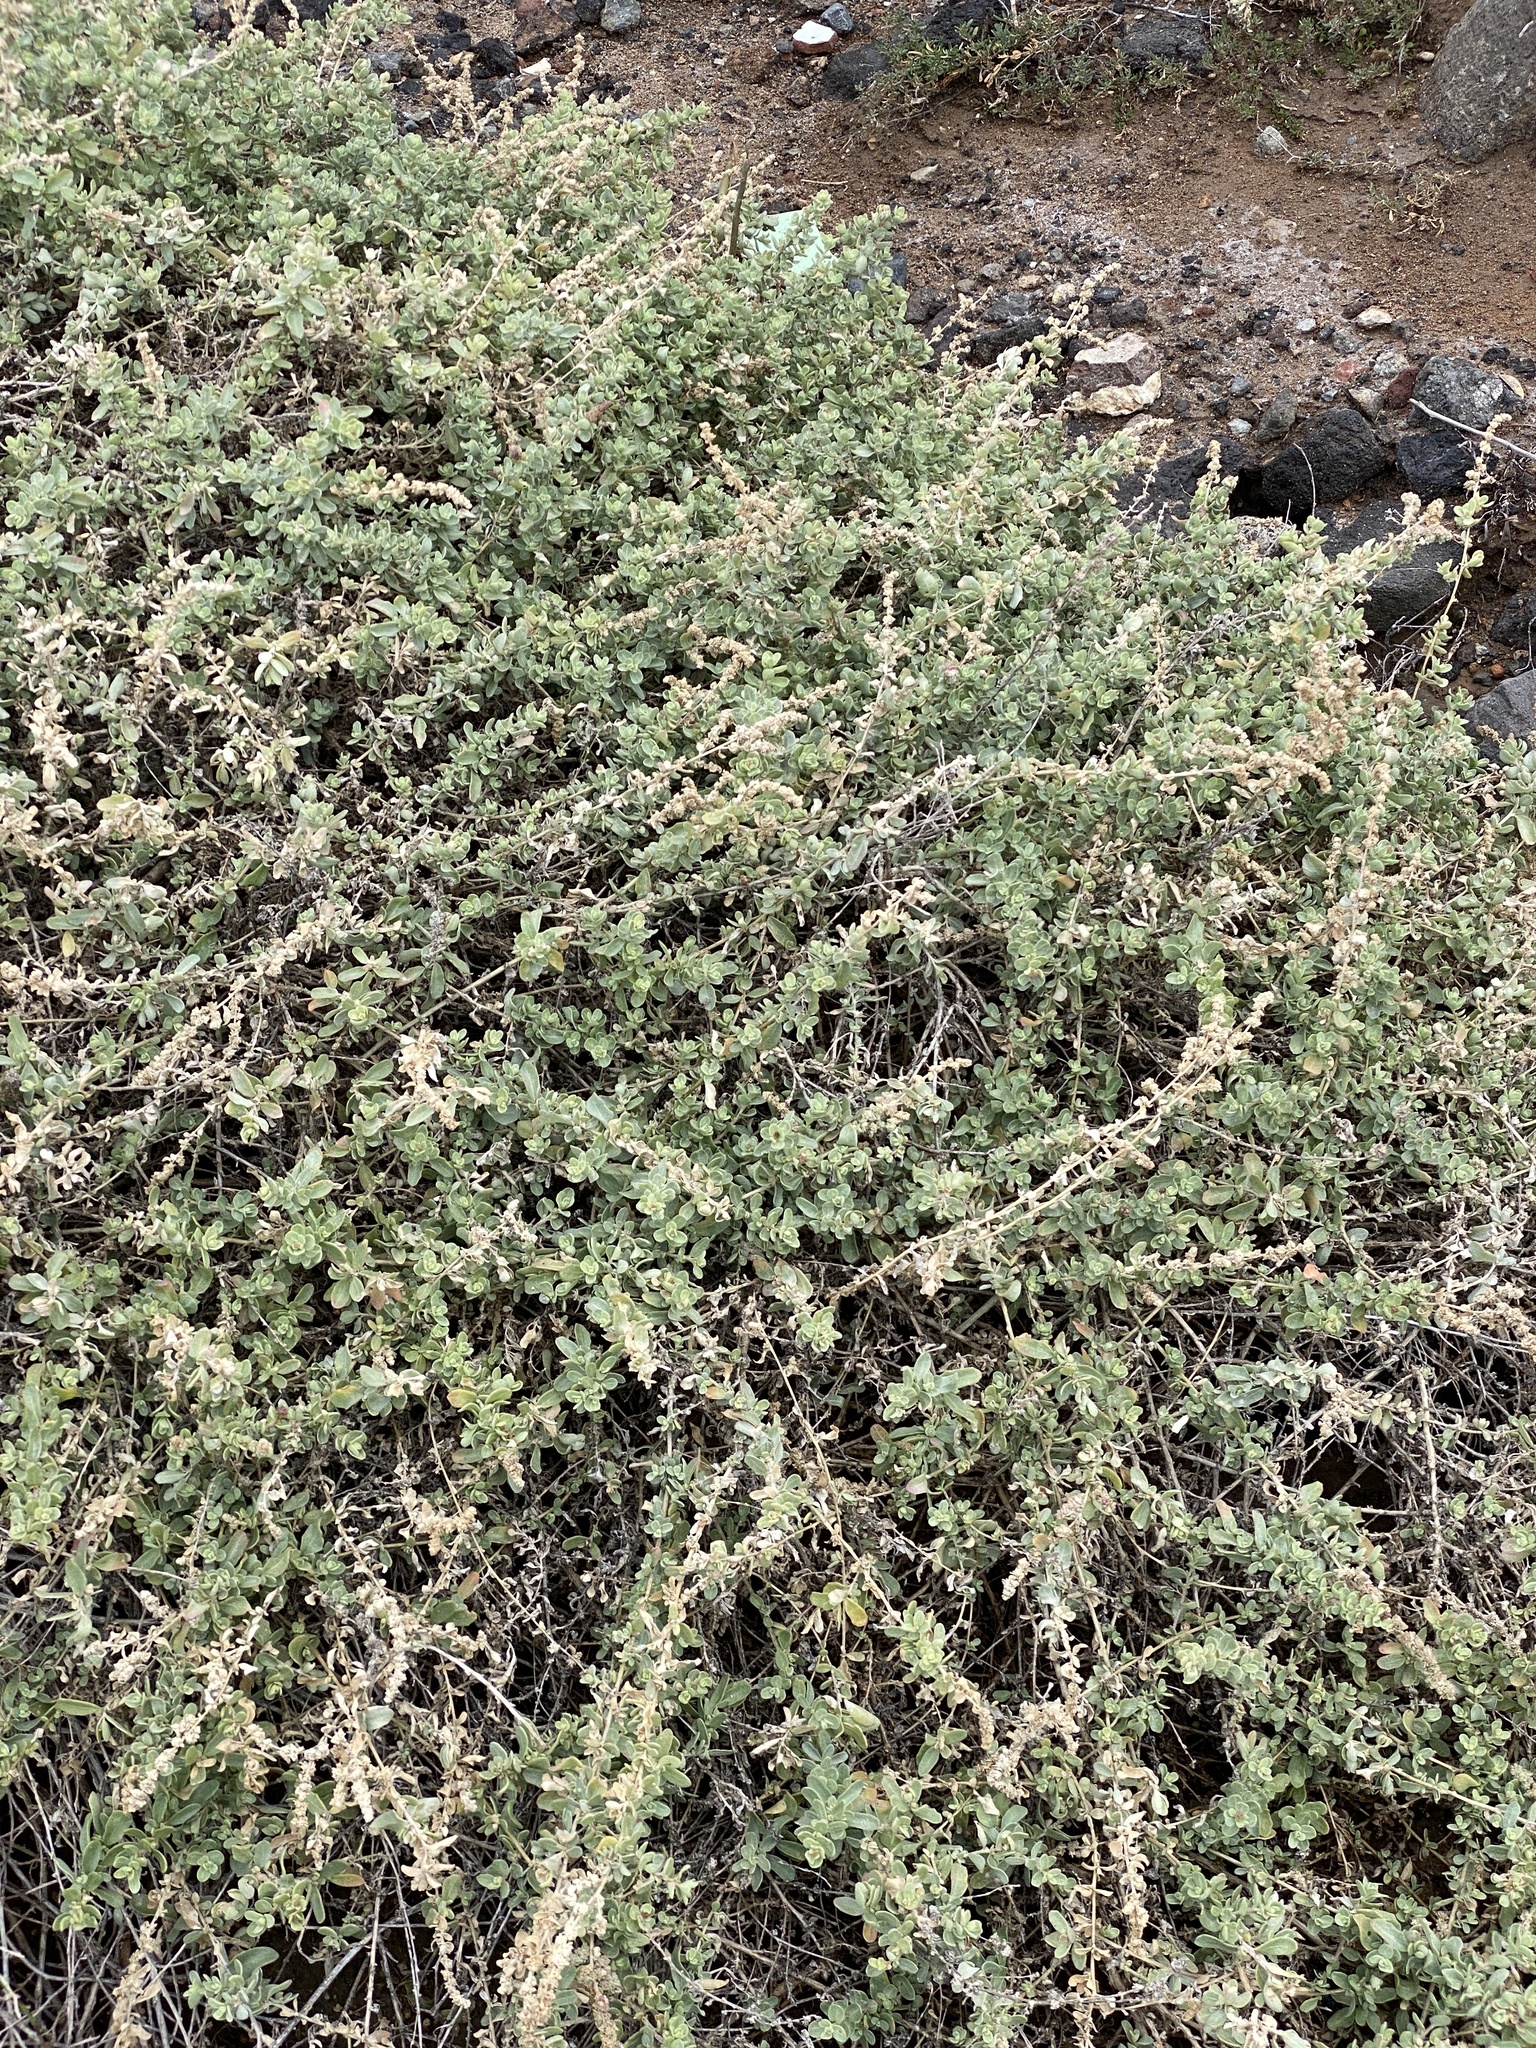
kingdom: Plantae
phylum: Tracheophyta
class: Magnoliopsida
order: Caryophyllales
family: Amaranthaceae
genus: Atriplex
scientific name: Atriplex glauca
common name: Waxy saltbush
